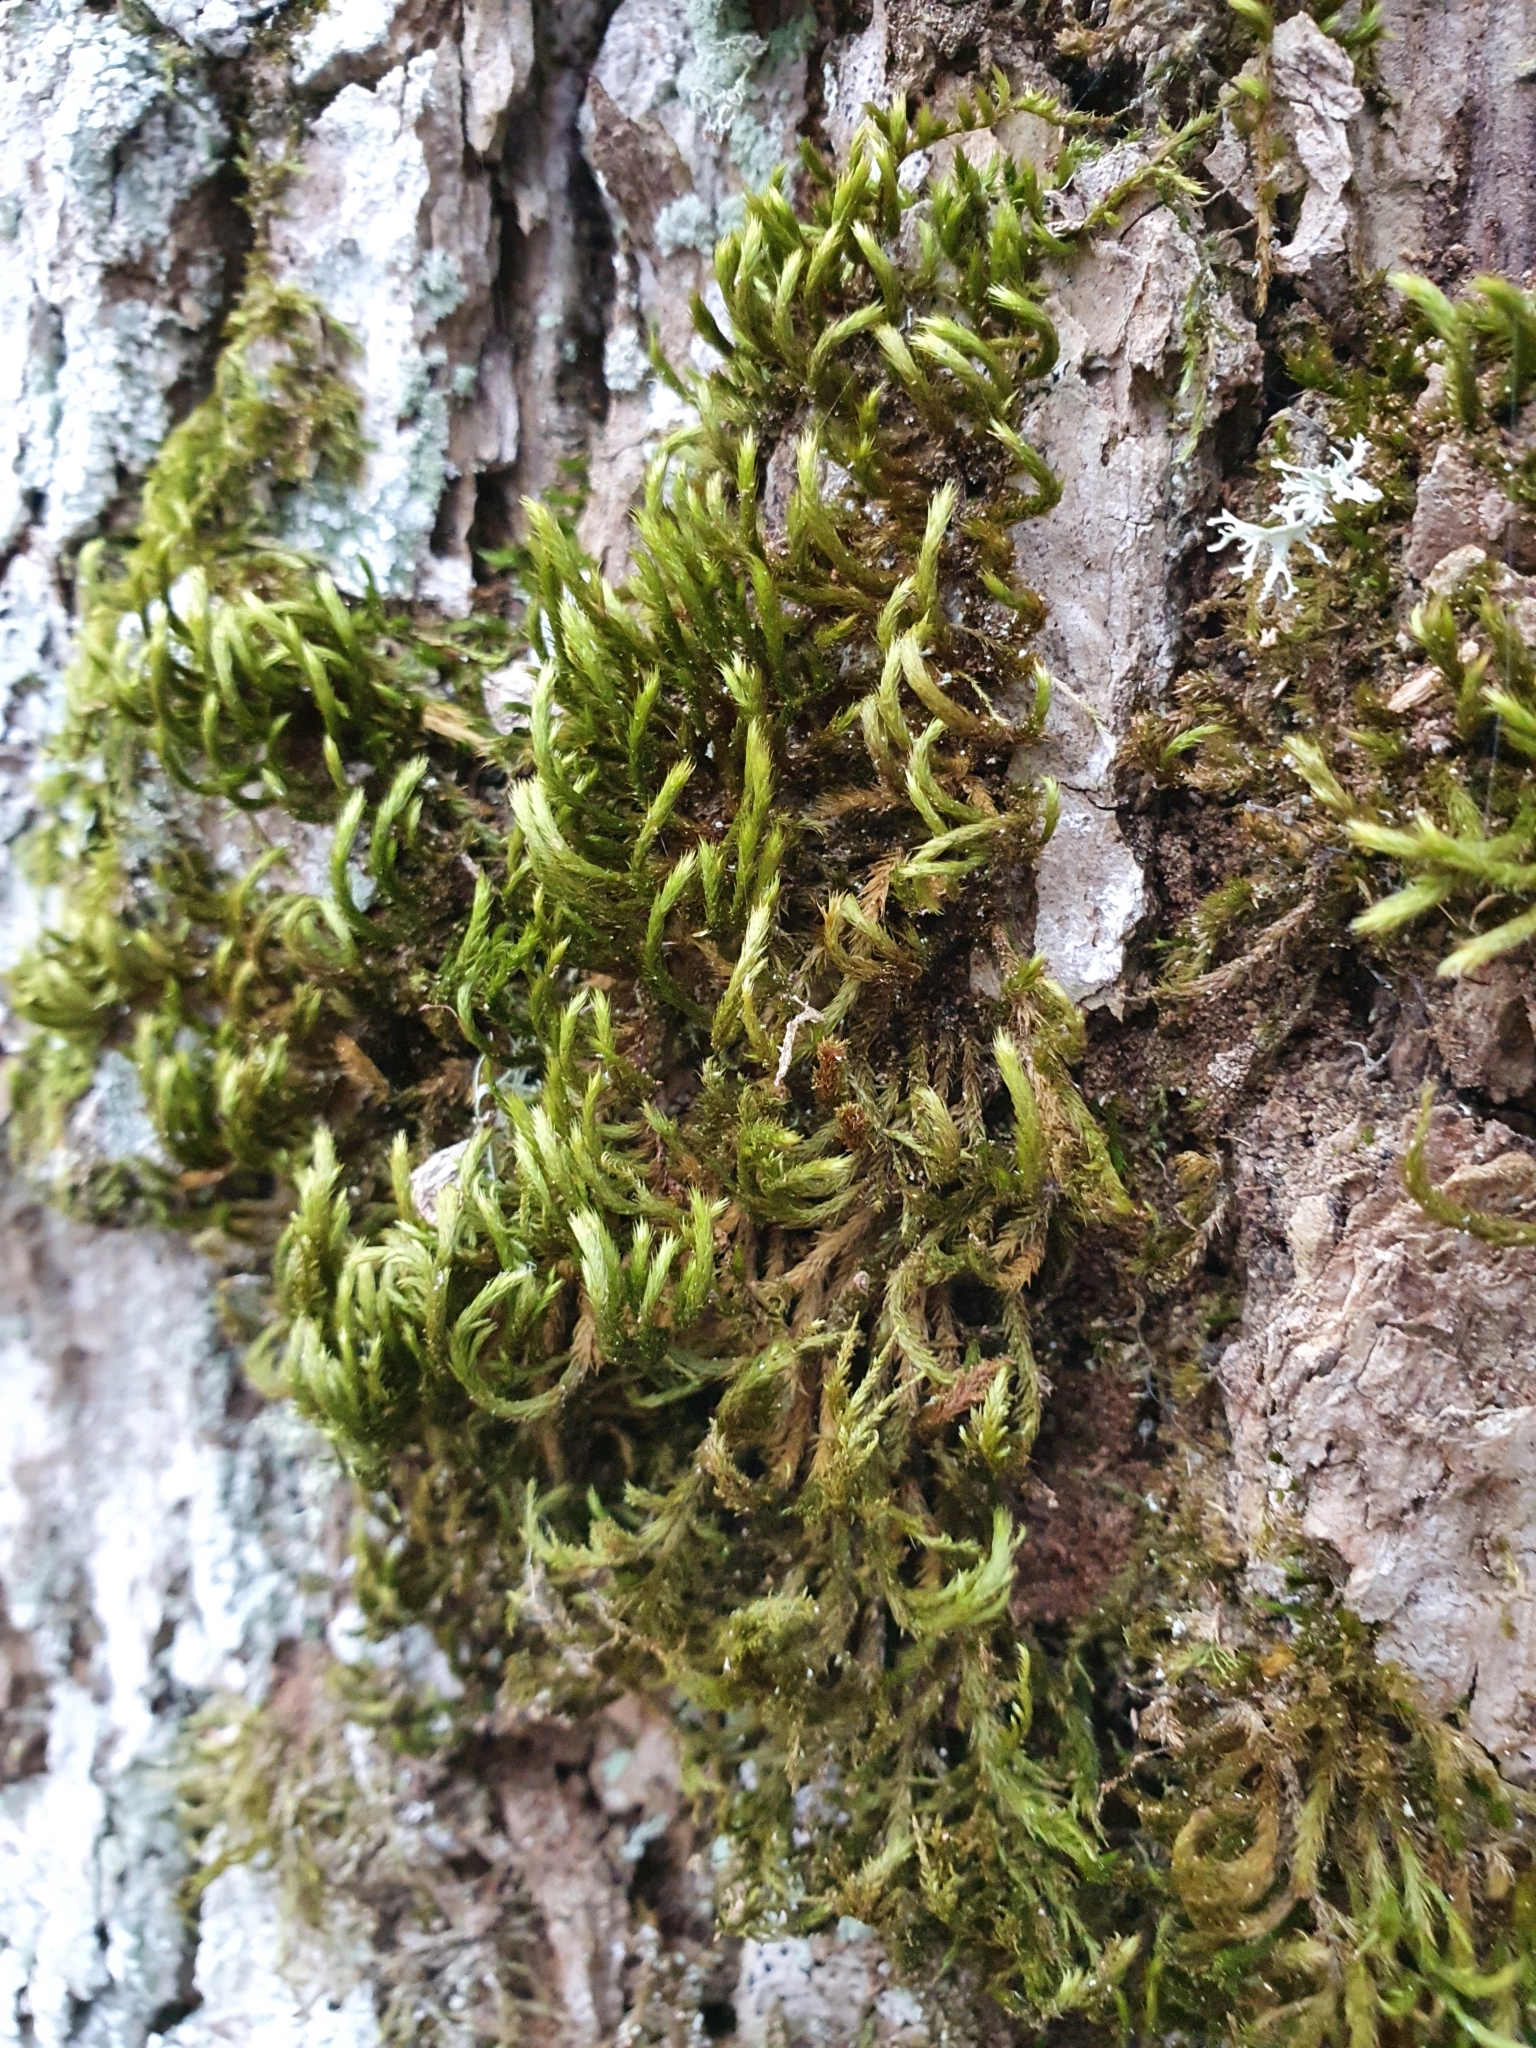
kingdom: Plantae
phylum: Bryophyta
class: Bryopsida
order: Hypnales
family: Leucodontaceae
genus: Leucodon
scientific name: Leucodon sciuroides
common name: Squirrel-tail moss
